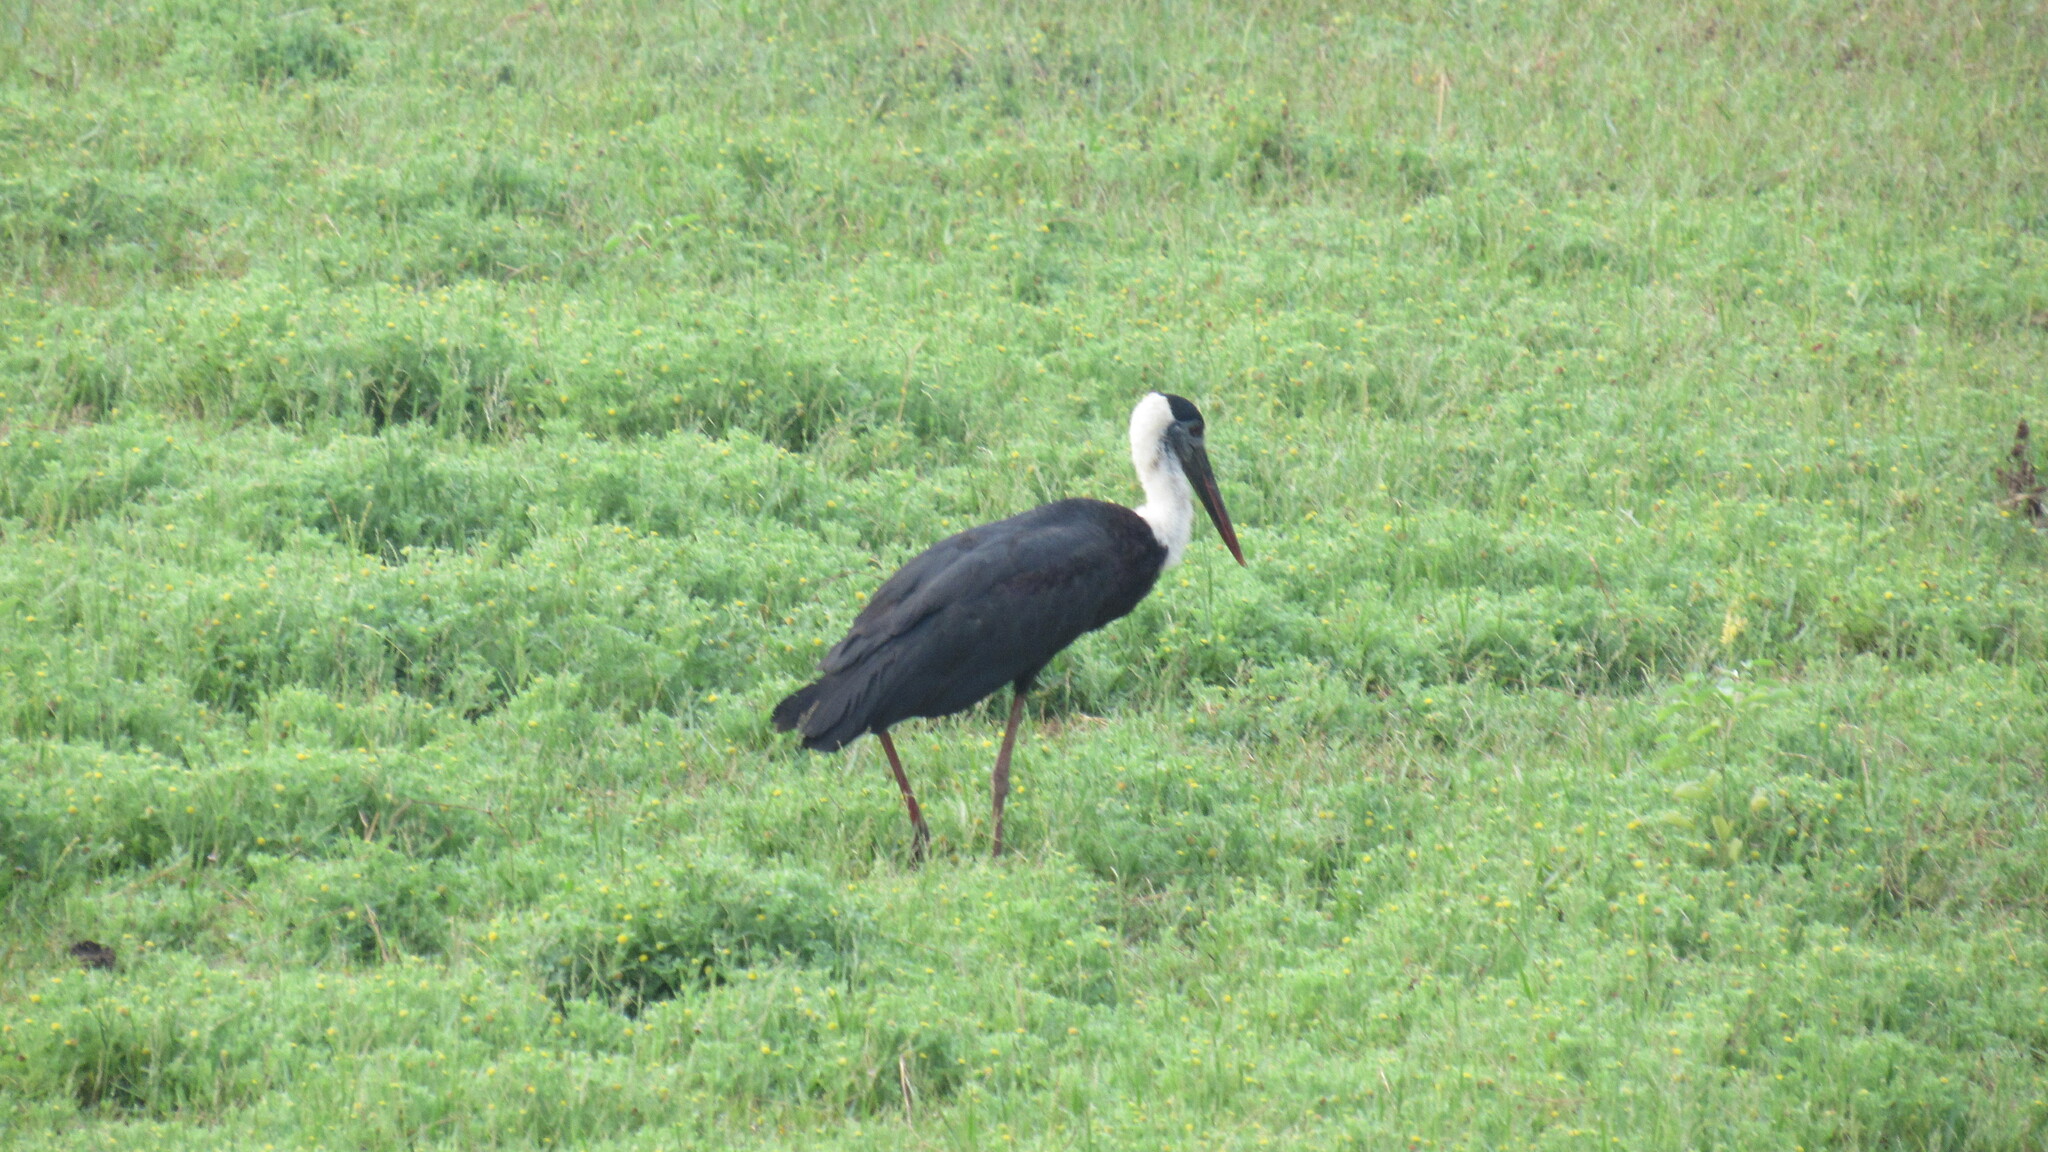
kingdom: Animalia
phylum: Chordata
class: Aves
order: Ciconiiformes
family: Ciconiidae
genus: Ciconia
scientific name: Ciconia episcopus
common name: Woolly-necked stork
